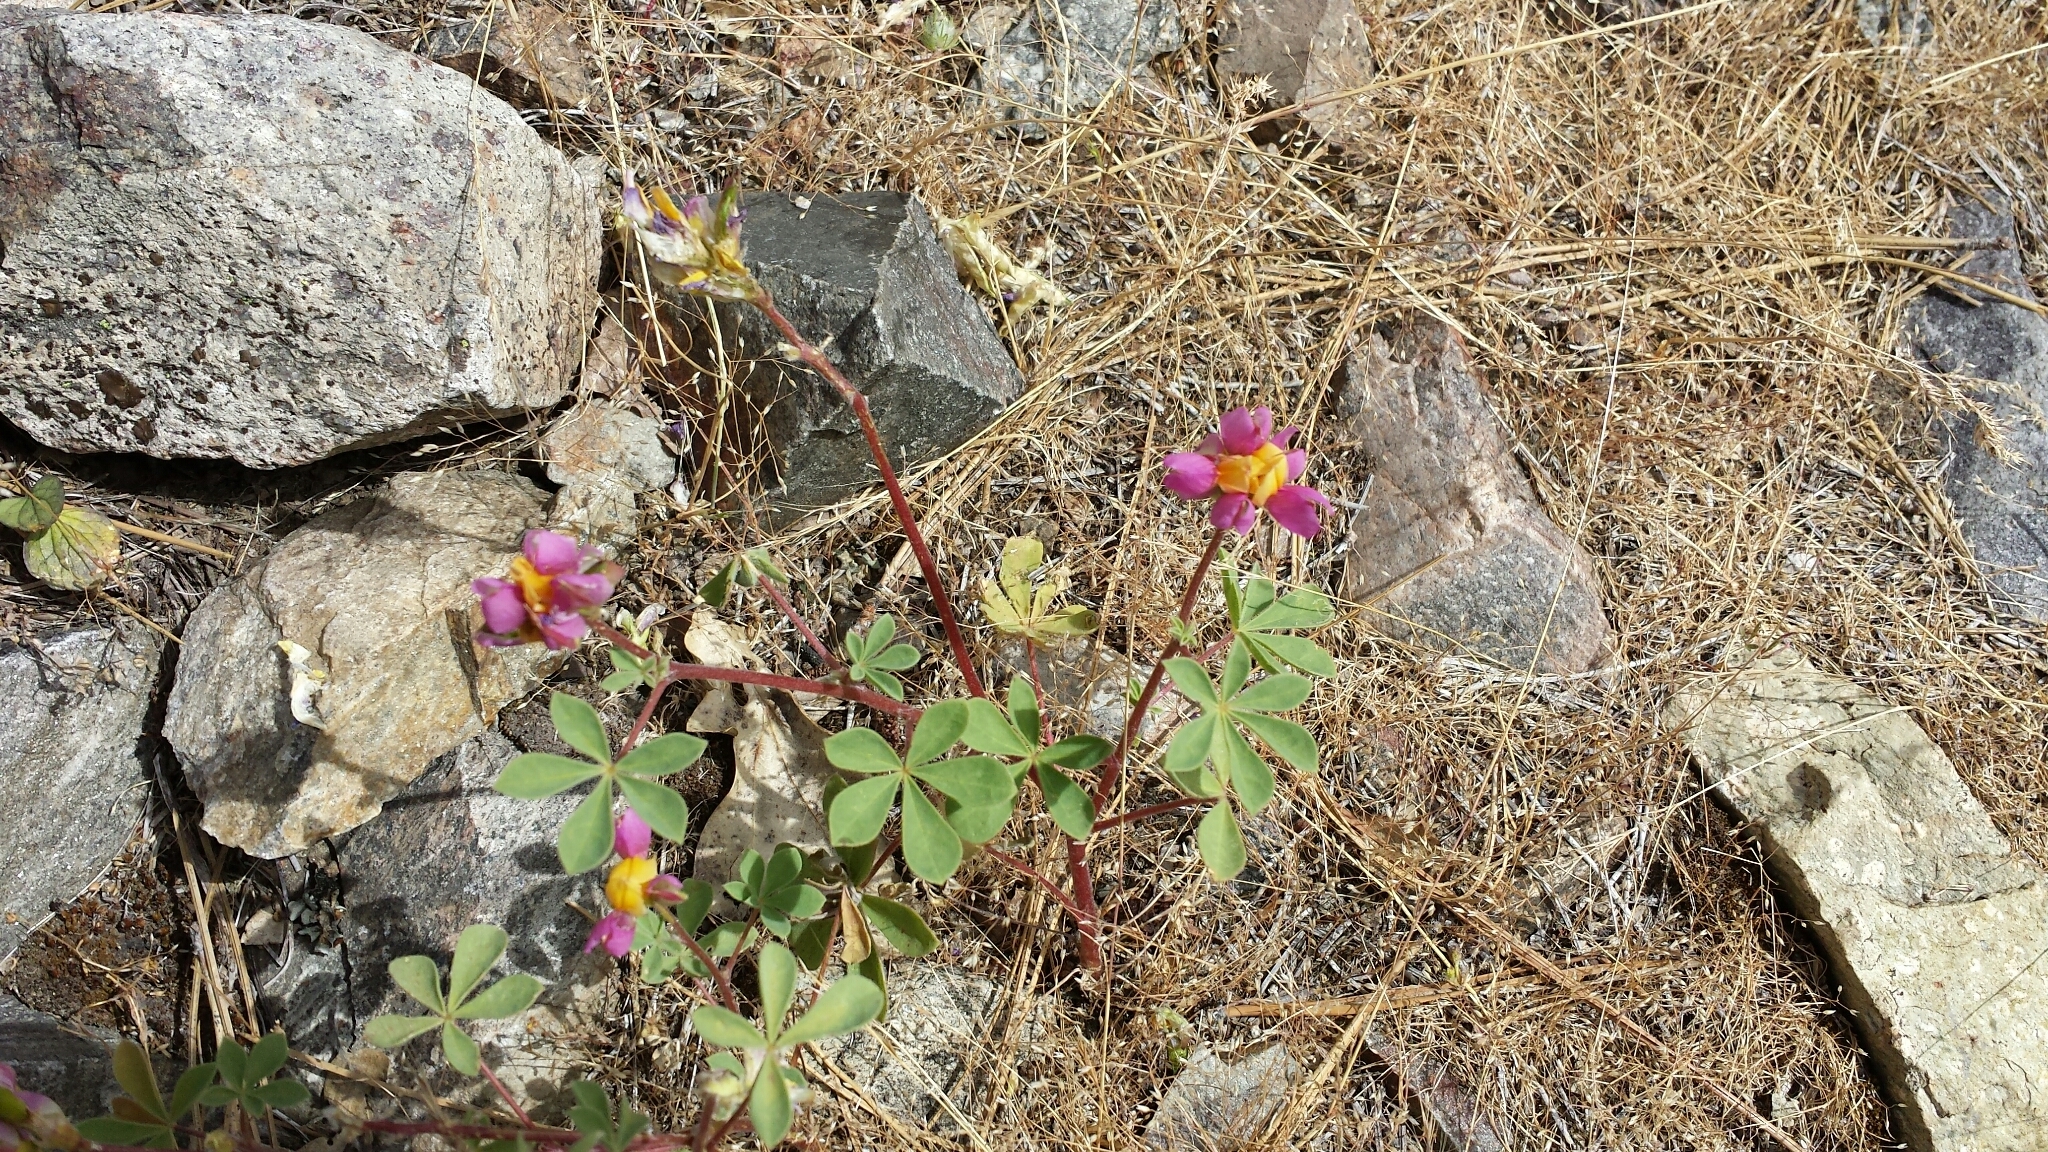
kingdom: Plantae
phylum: Tracheophyta
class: Magnoliopsida
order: Fabales
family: Fabaceae
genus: Lupinus
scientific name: Lupinus stiversii
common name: Harlequin lupine
